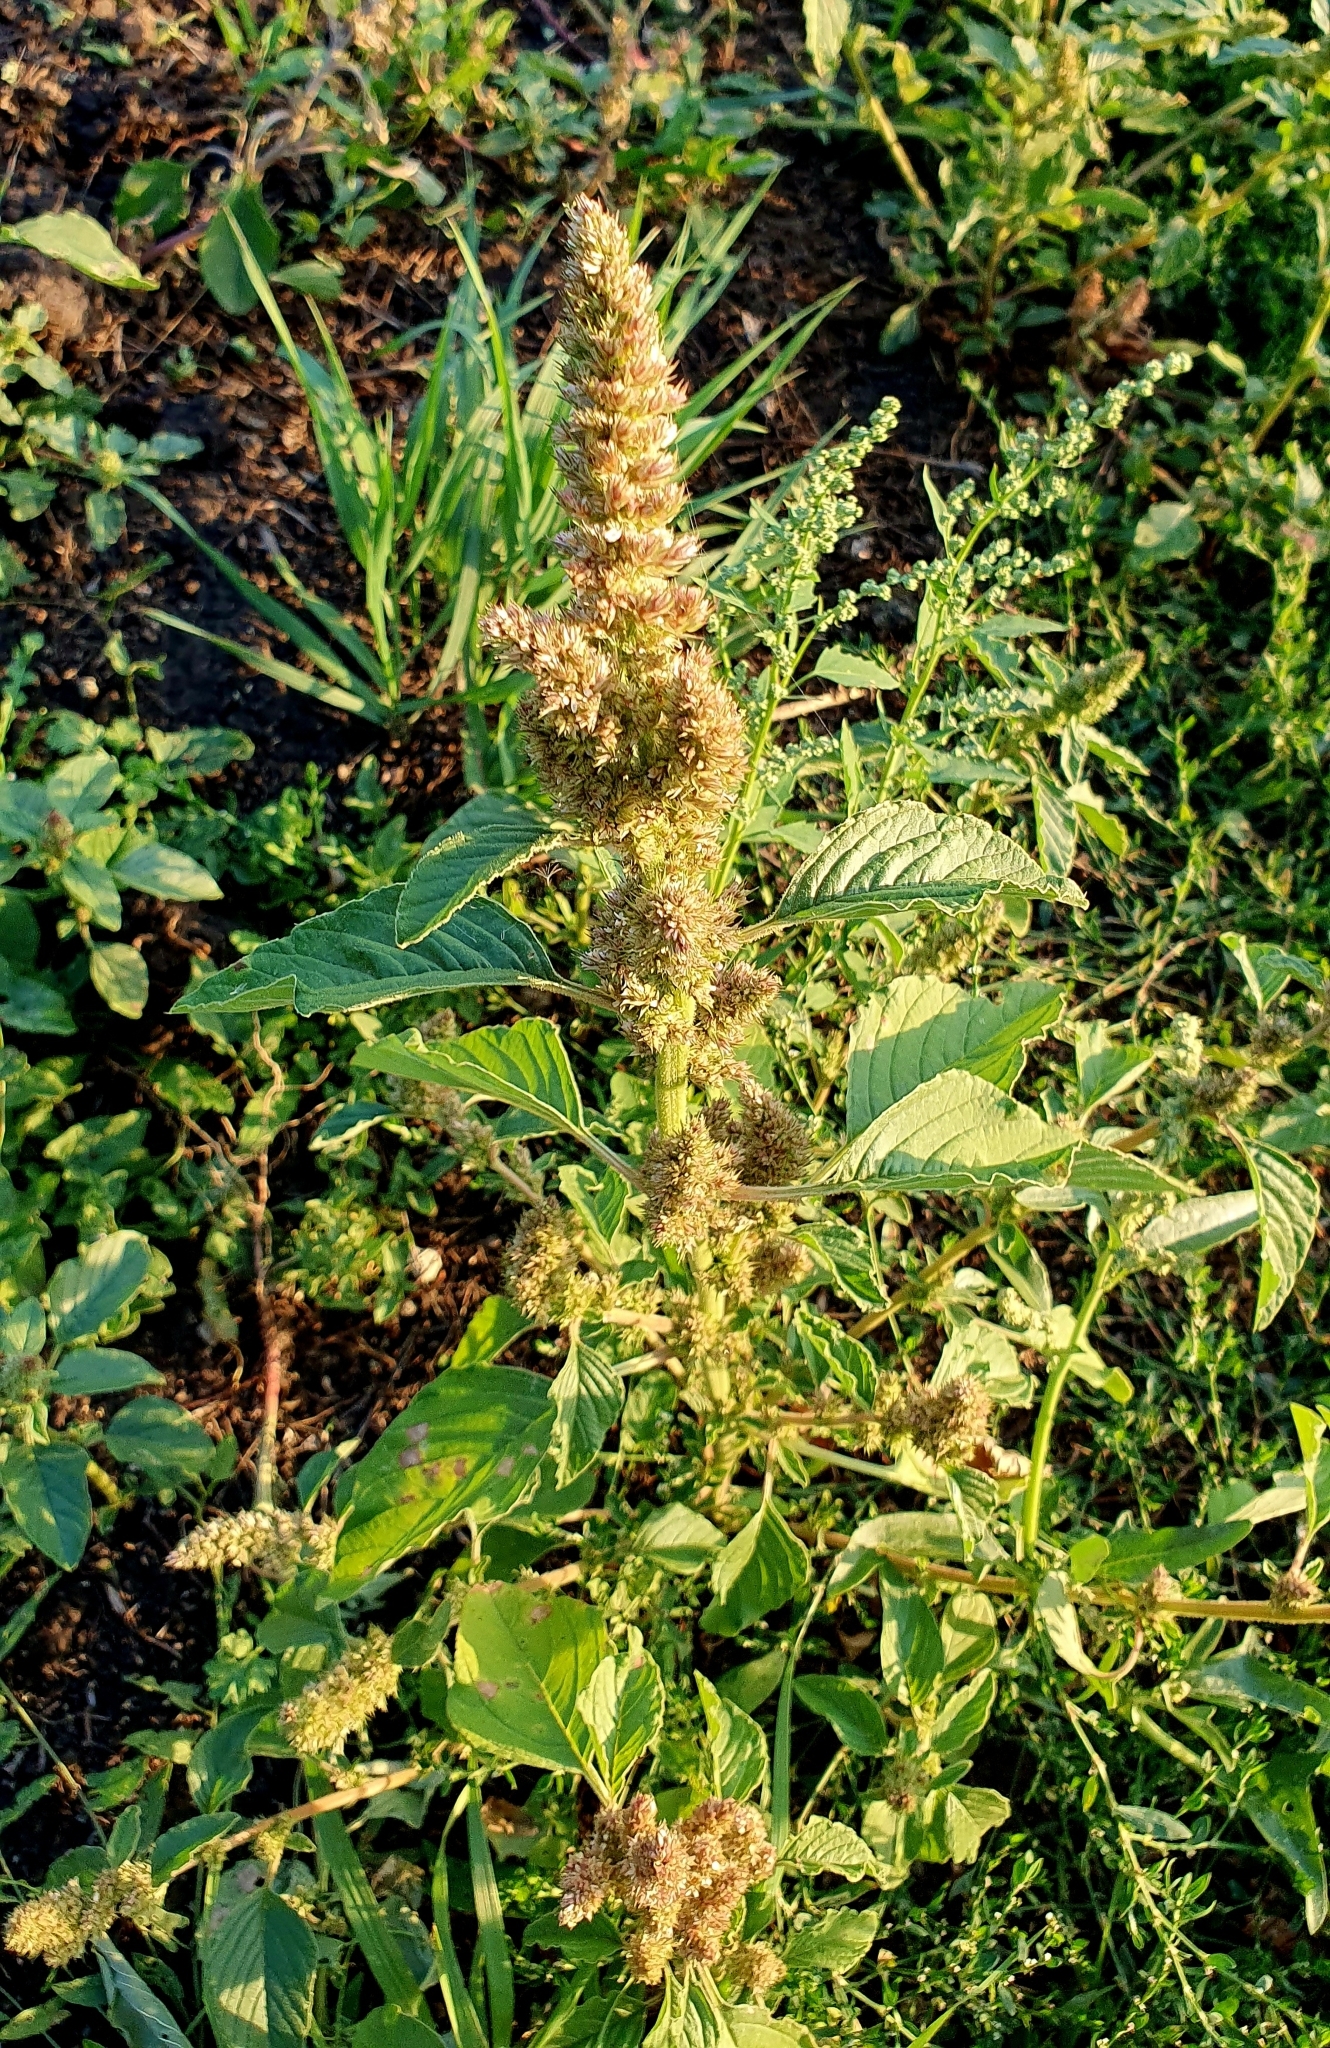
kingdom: Plantae
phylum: Tracheophyta
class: Magnoliopsida
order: Caryophyllales
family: Amaranthaceae
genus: Amaranthus
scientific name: Amaranthus retroflexus
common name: Redroot amaranth
